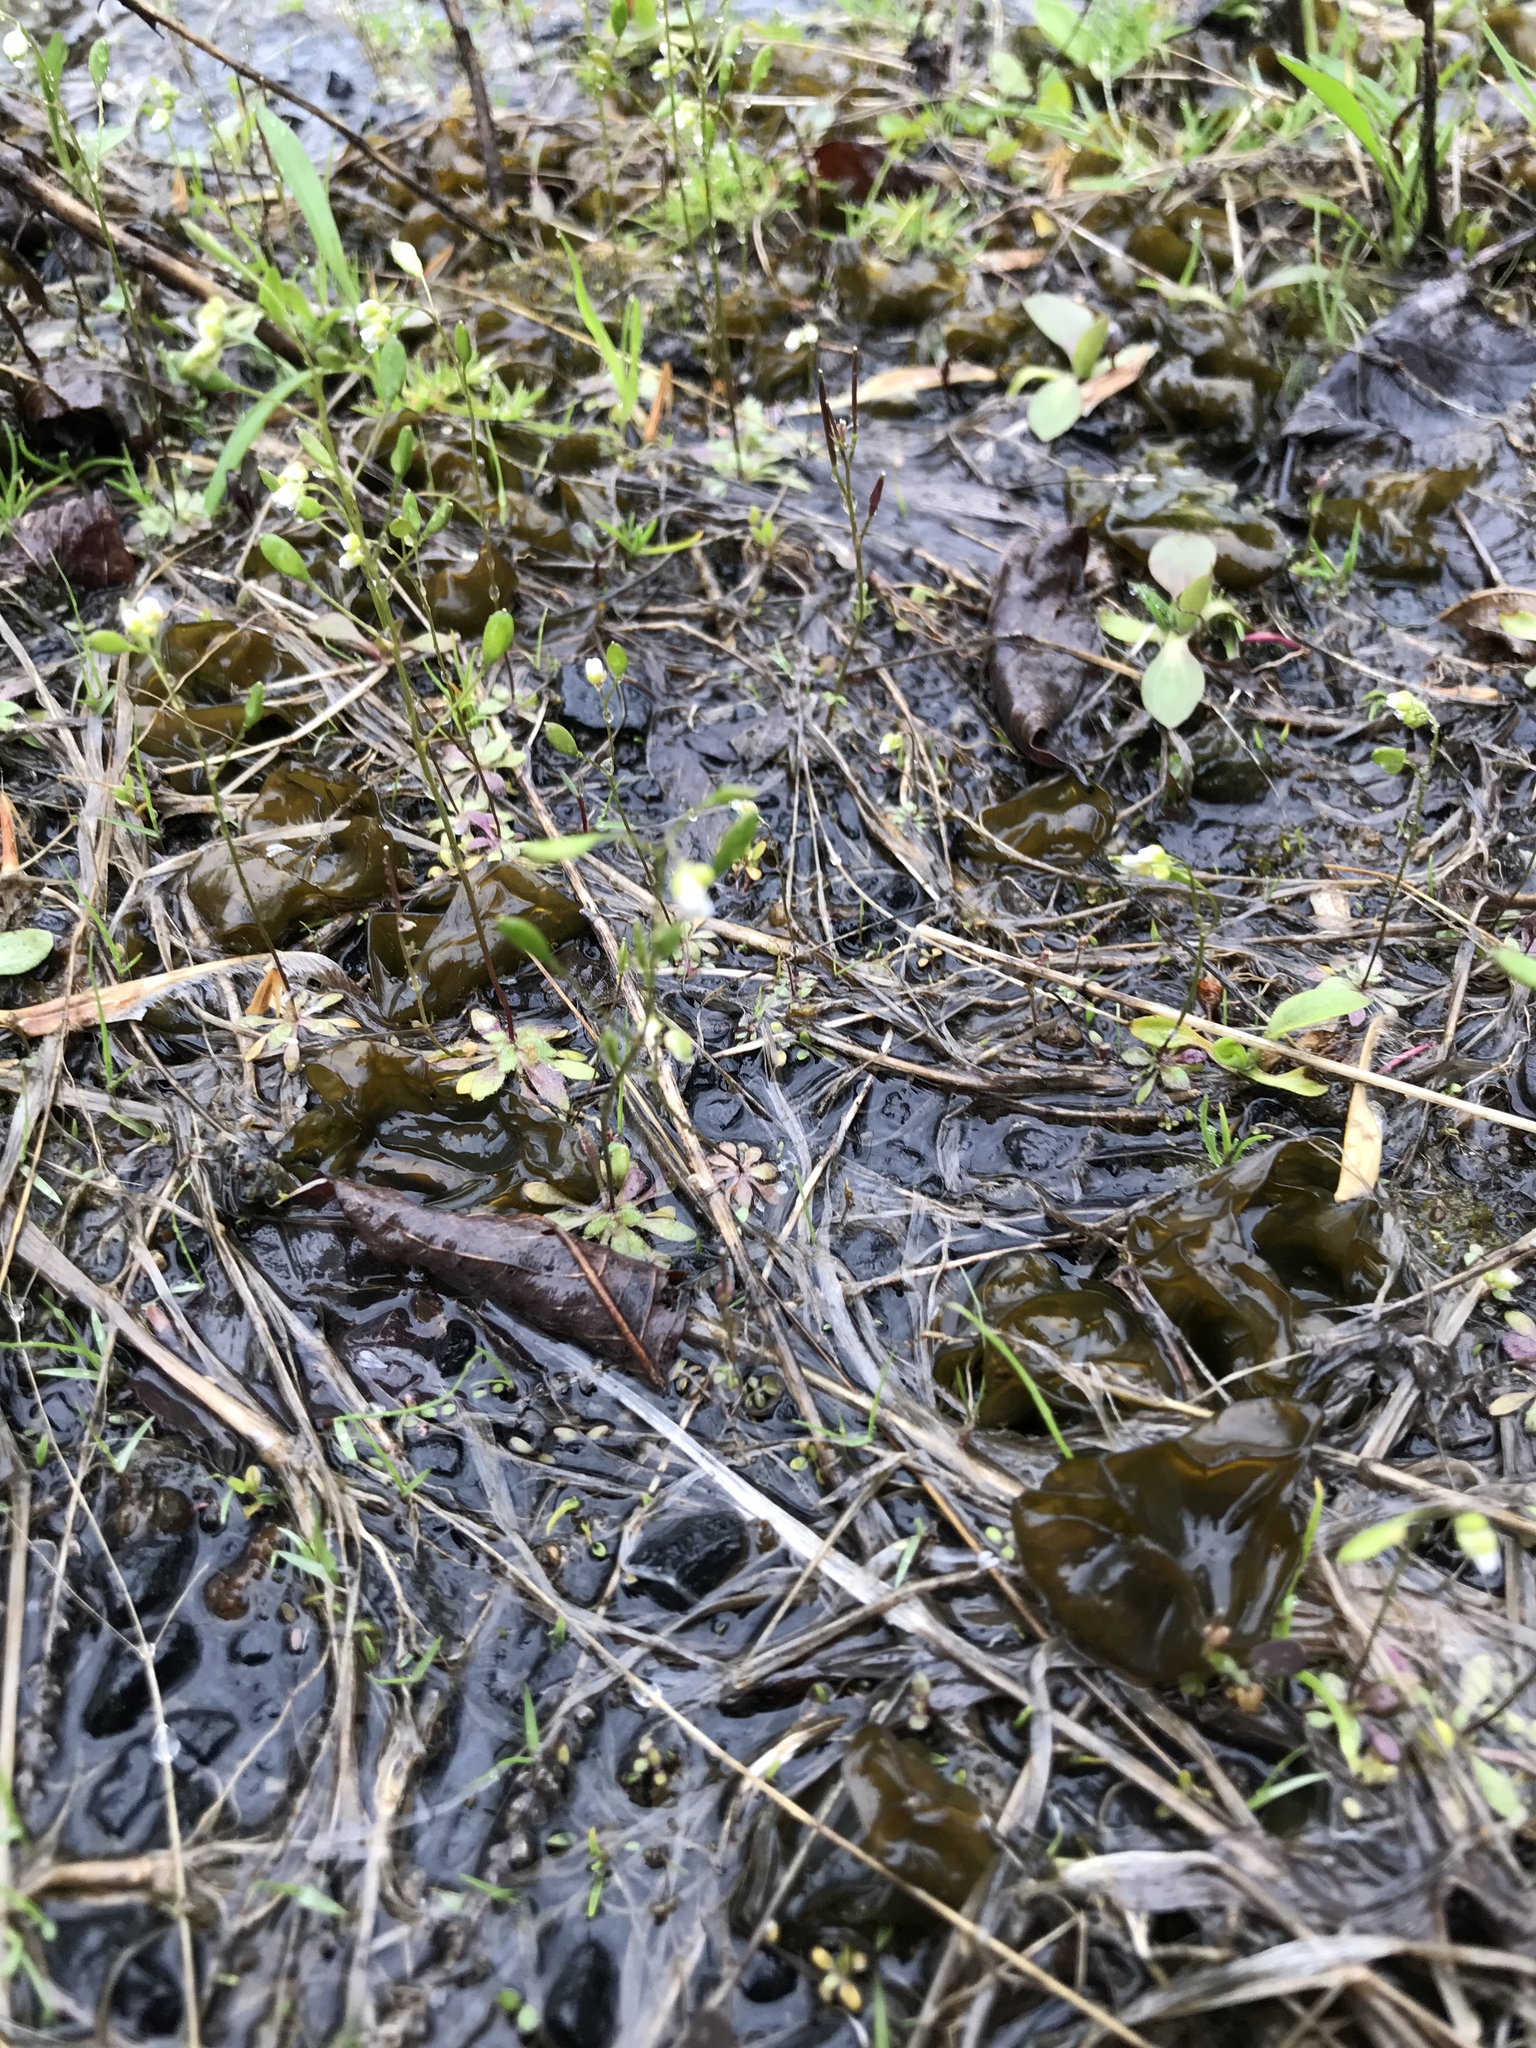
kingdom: Plantae
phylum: Tracheophyta
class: Magnoliopsida
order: Brassicales
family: Brassicaceae
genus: Draba
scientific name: Draba verna
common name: Spring draba
